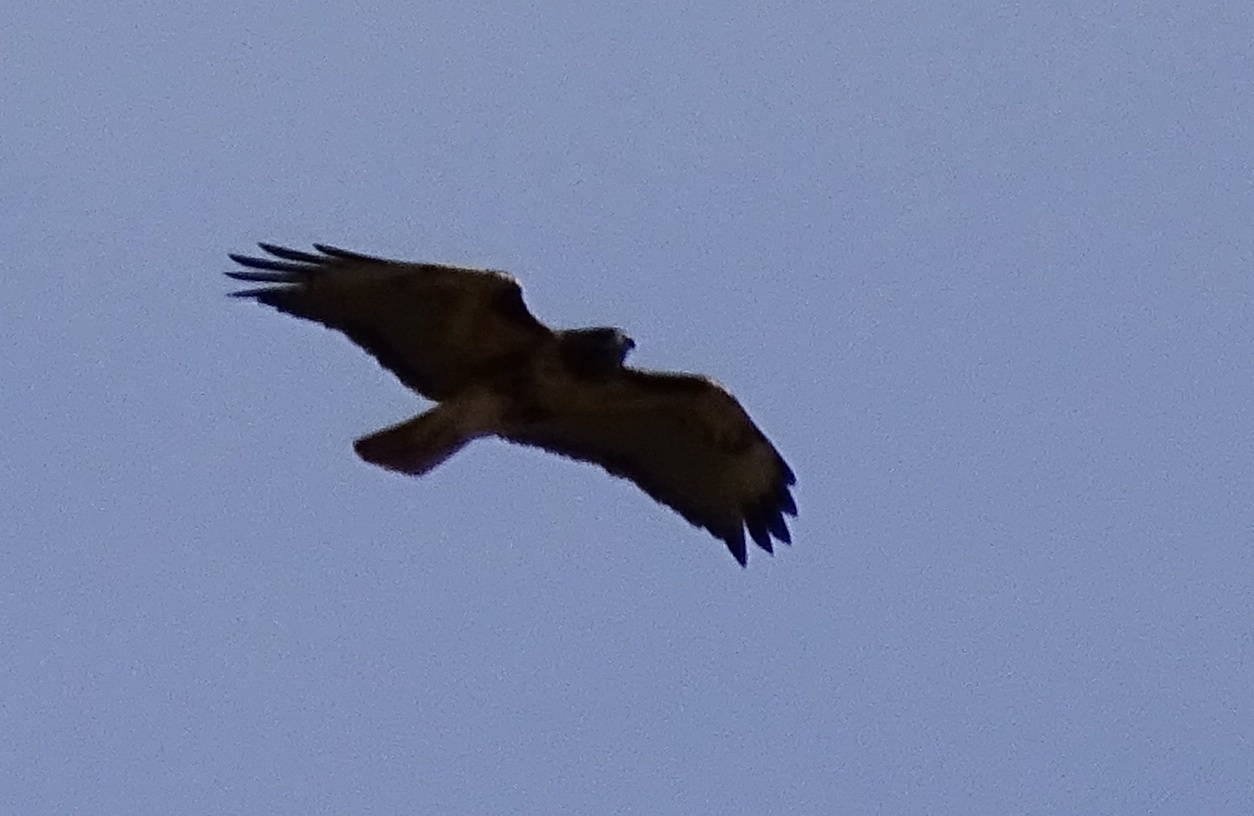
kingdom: Animalia
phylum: Chordata
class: Aves
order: Accipitriformes
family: Accipitridae
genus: Buteo
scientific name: Buteo jamaicensis
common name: Red-tailed hawk
